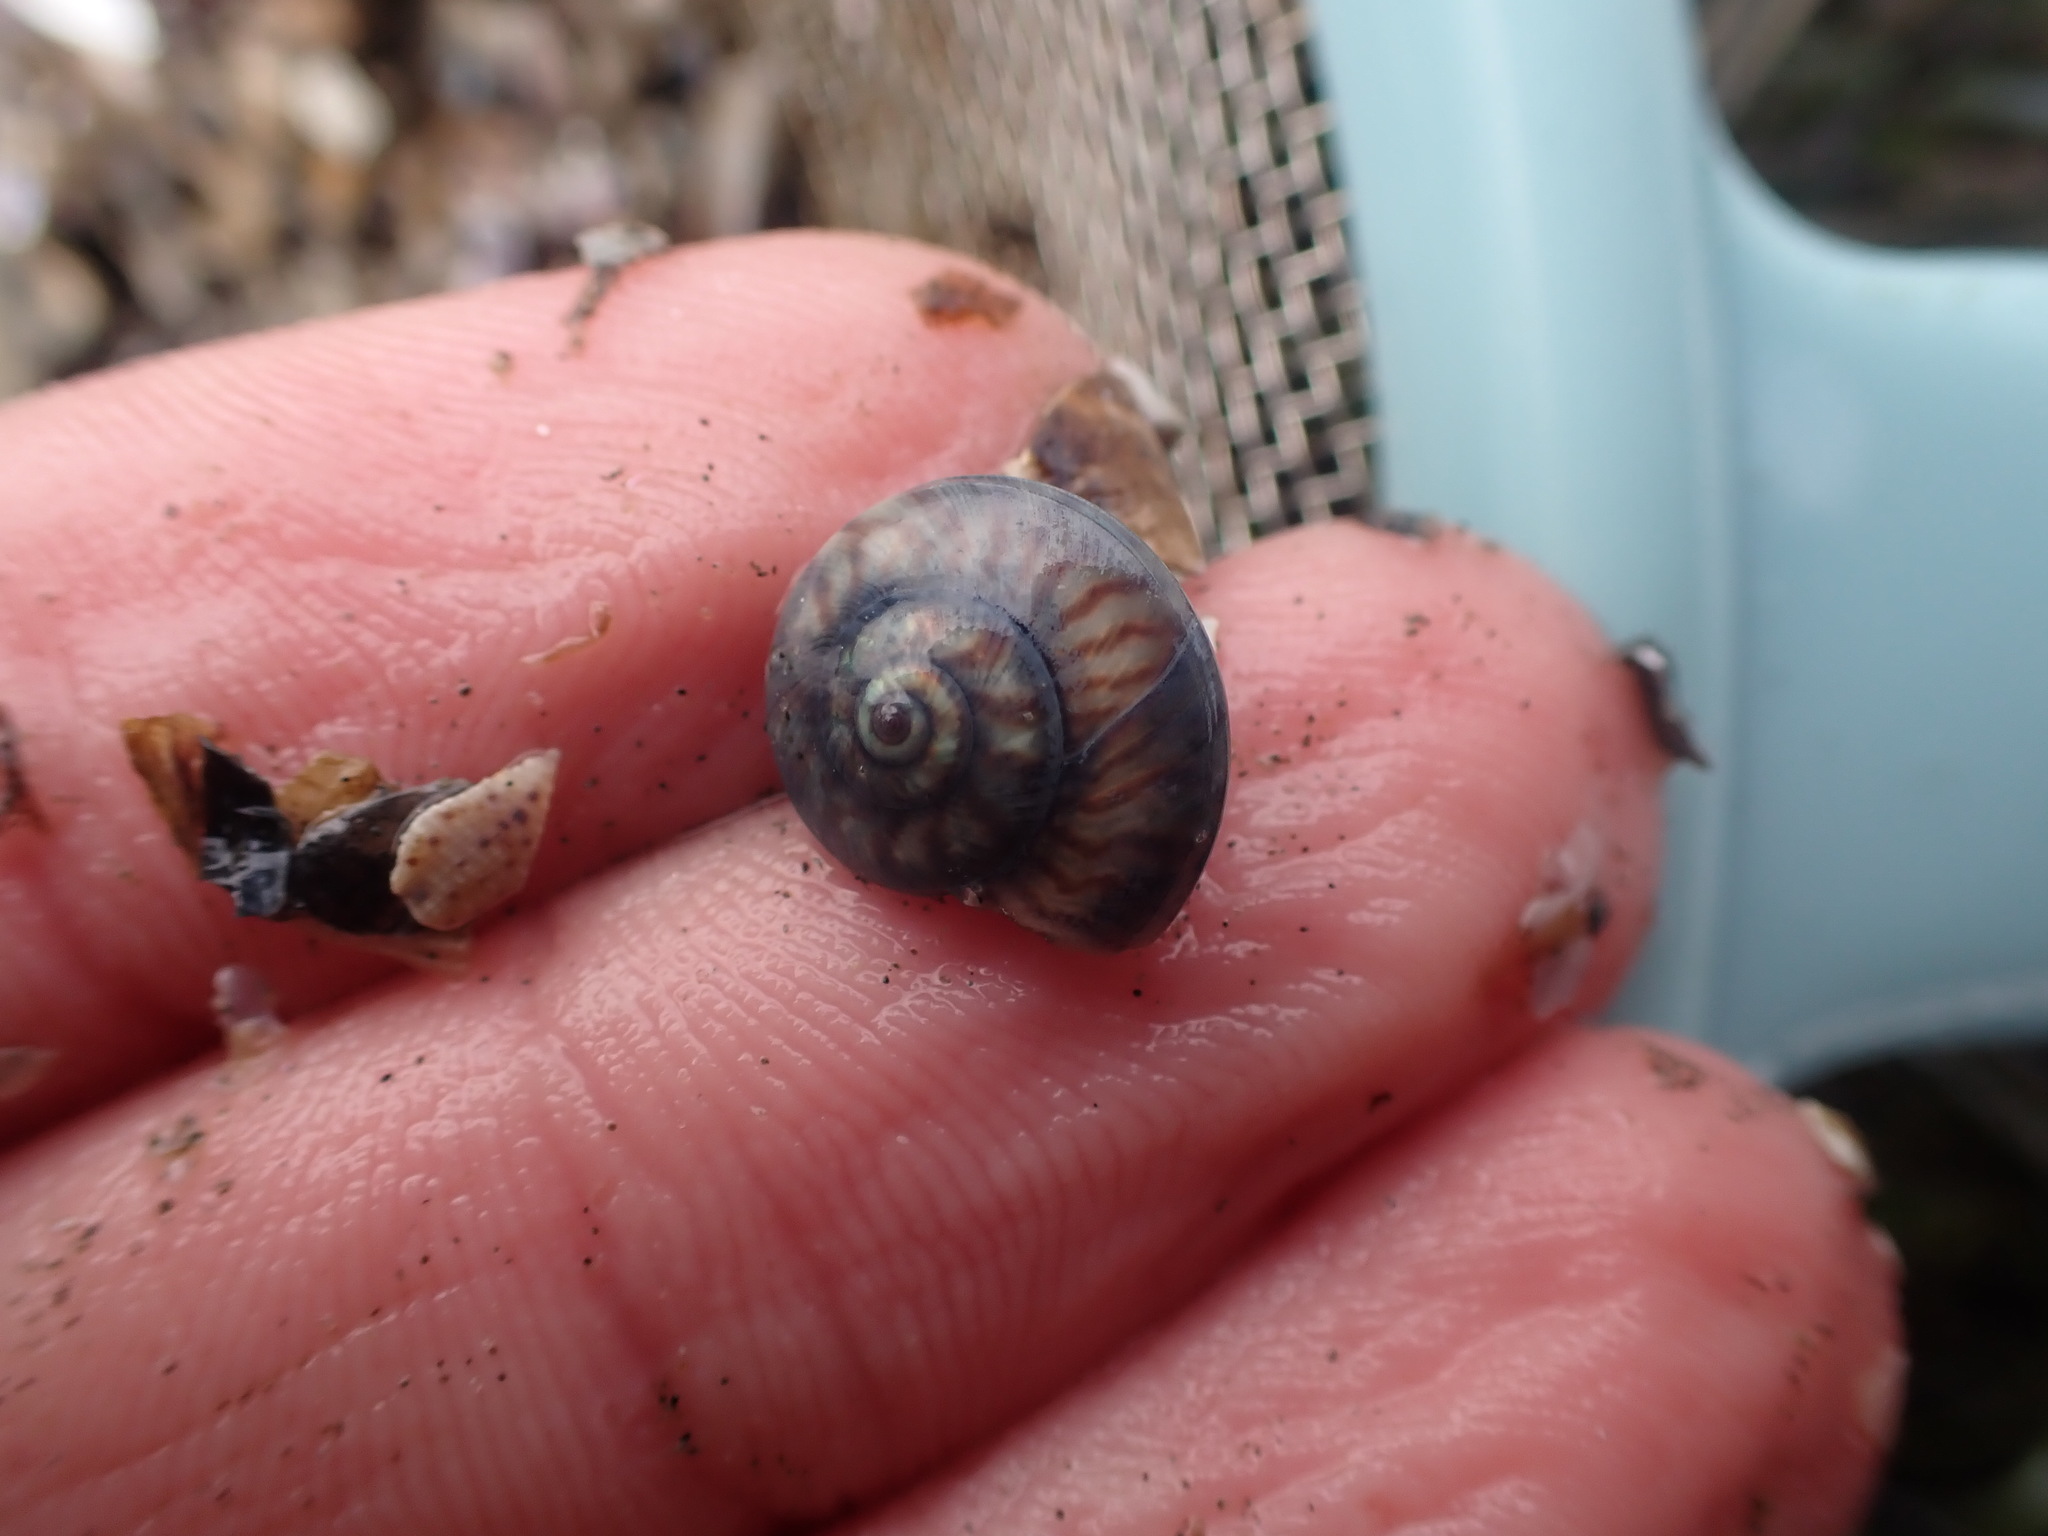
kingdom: Animalia
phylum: Mollusca
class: Gastropoda
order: Trochida
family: Trochidae
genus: Zethalia
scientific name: Zethalia zelandica
